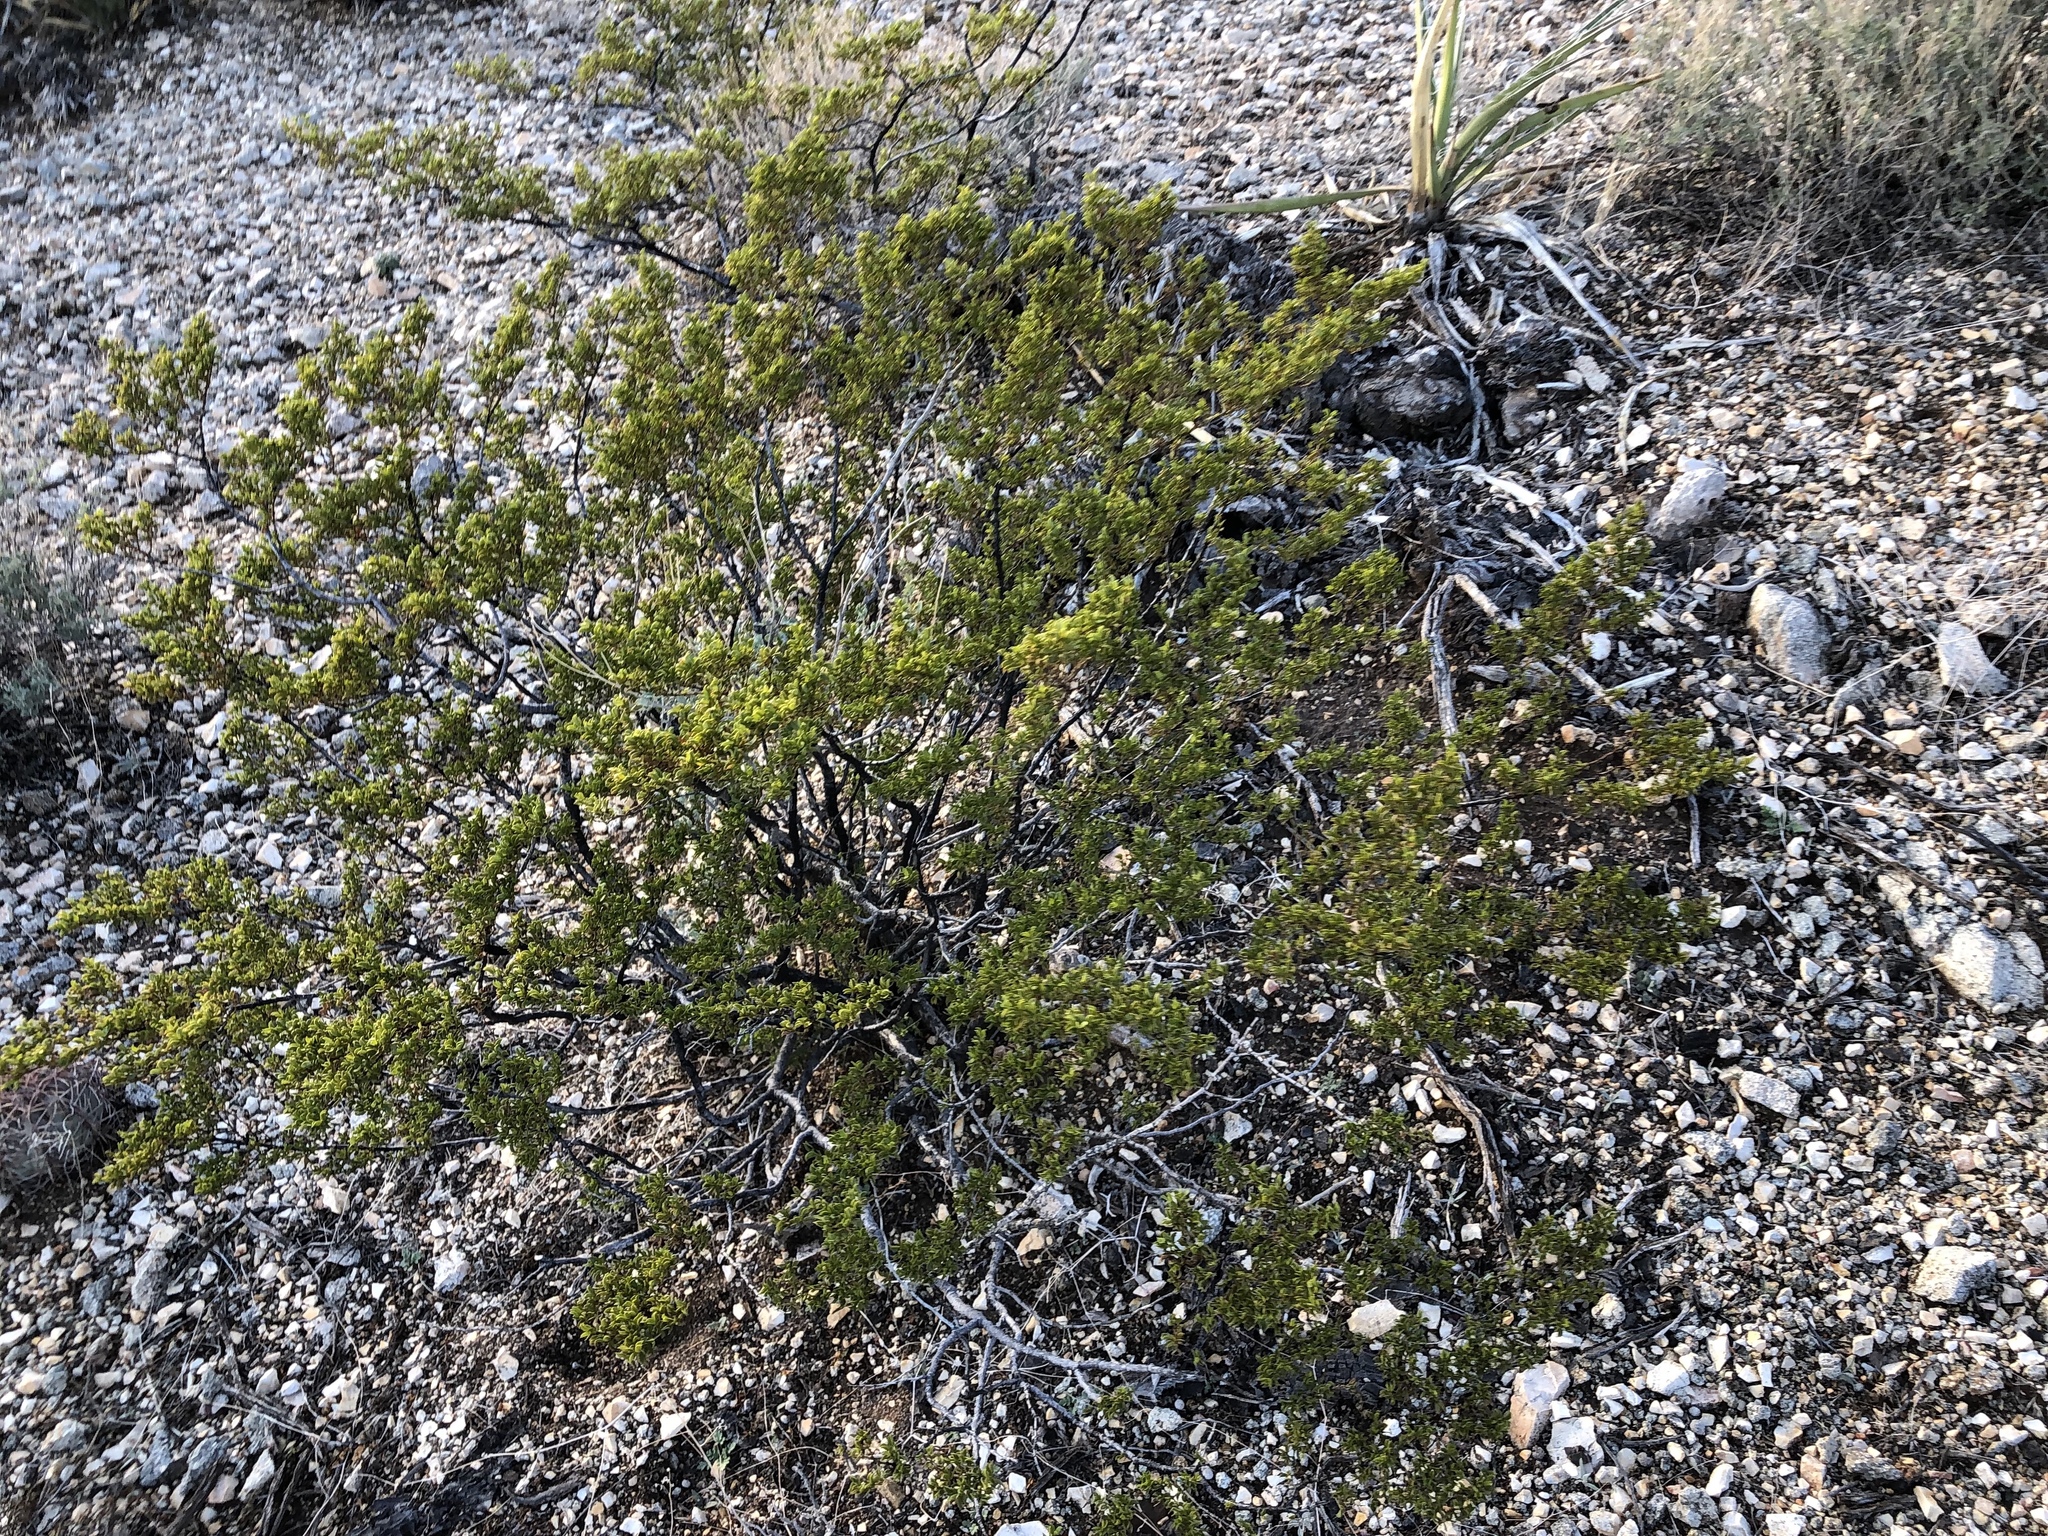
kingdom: Plantae
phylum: Tracheophyta
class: Magnoliopsida
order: Zygophyllales
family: Zygophyllaceae
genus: Larrea
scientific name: Larrea tridentata
